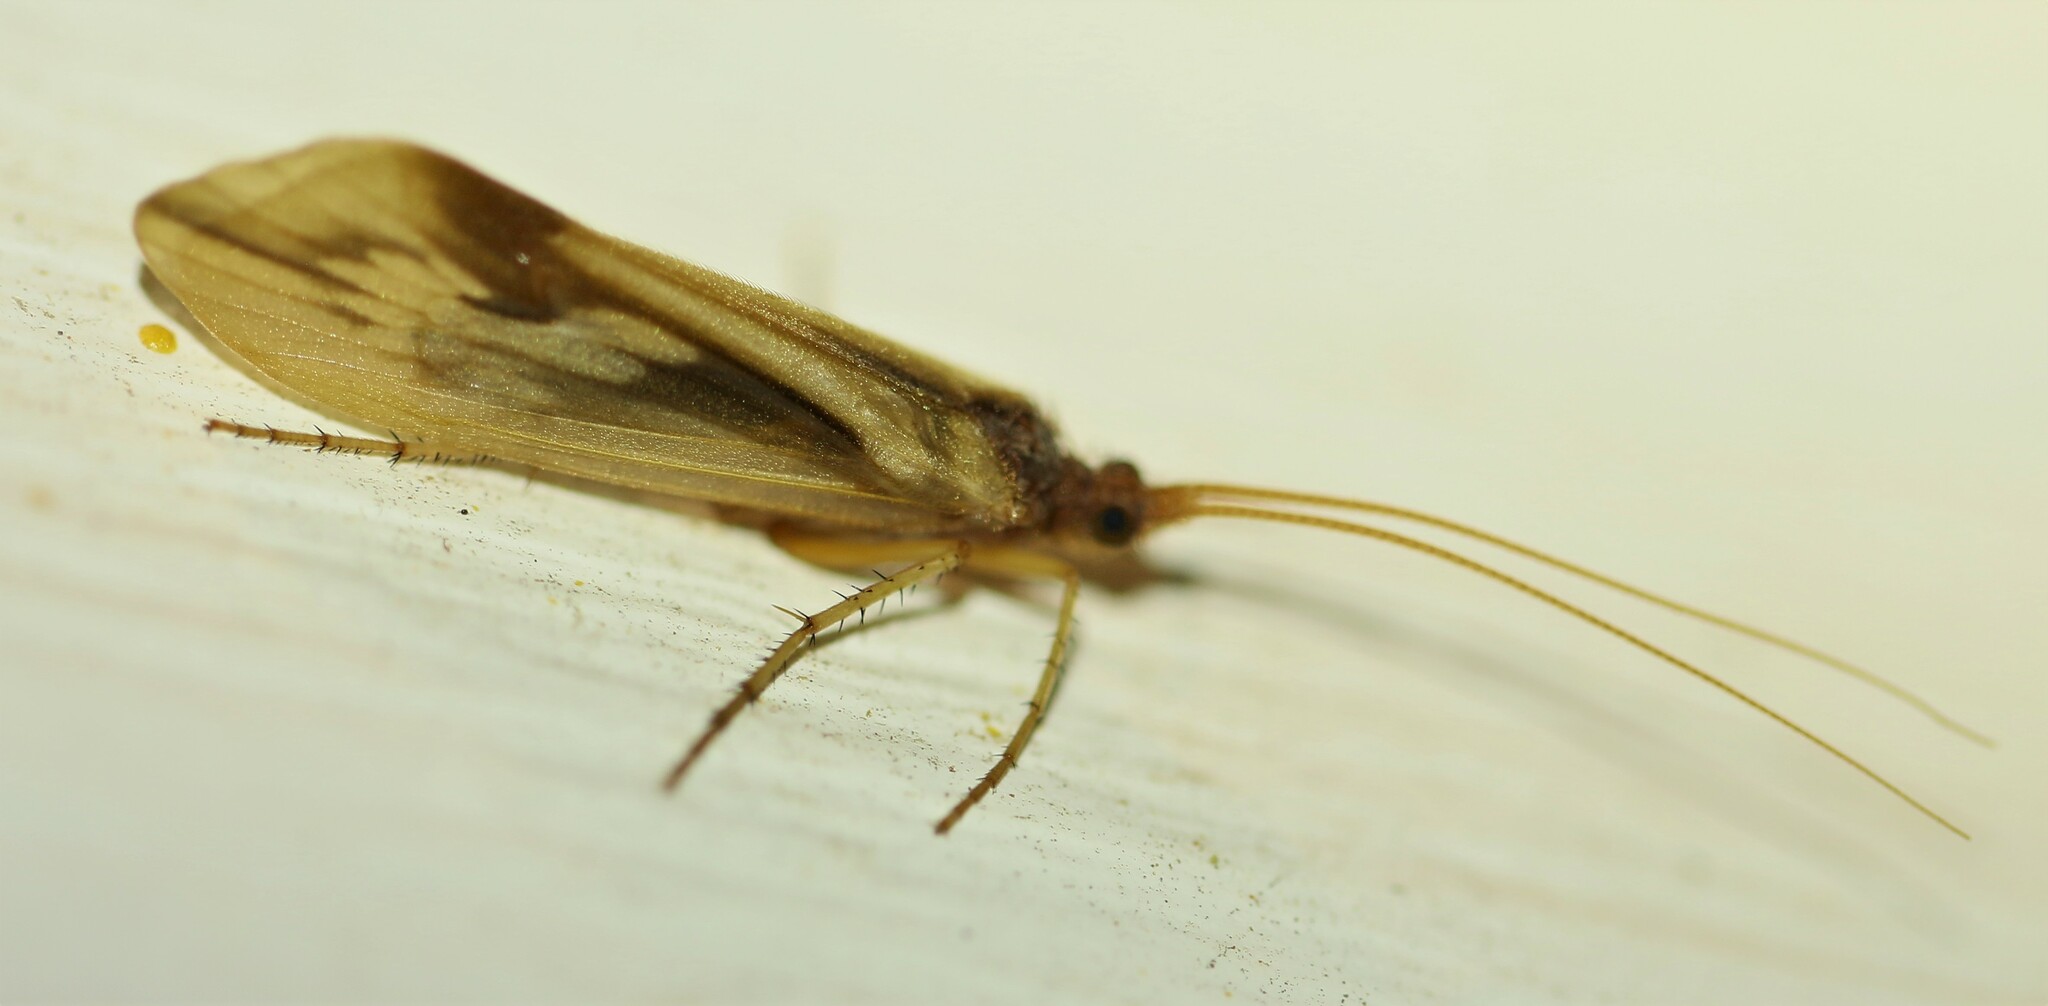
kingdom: Animalia
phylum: Arthropoda
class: Insecta
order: Trichoptera
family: Limnephilidae
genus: Platycentropus
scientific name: Platycentropus radiatus
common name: Chocolate-and-cream sedge
